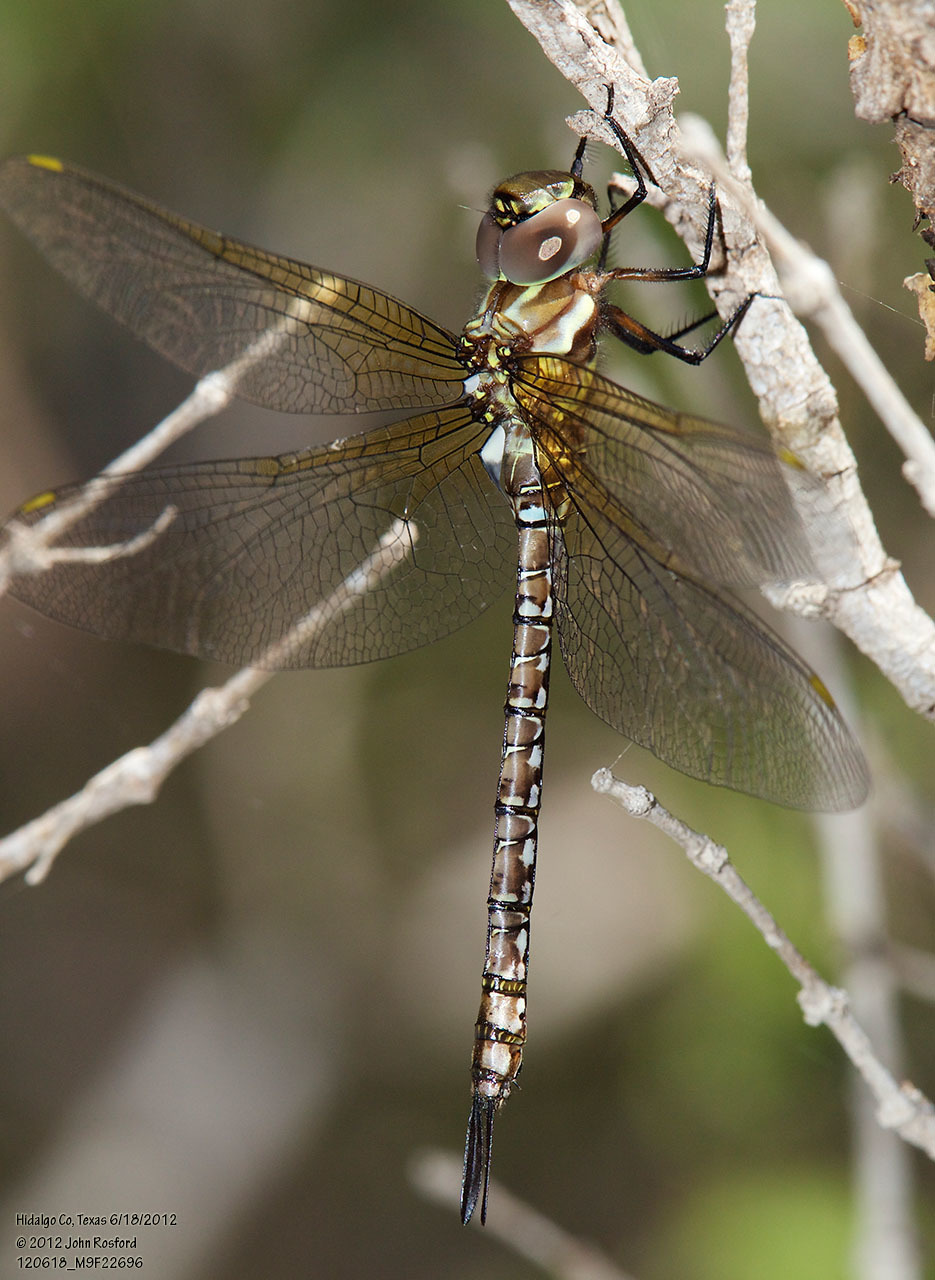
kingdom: Animalia
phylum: Arthropoda
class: Insecta
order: Odonata
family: Aeshnidae
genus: Rhionaeschna
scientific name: Rhionaeschna psilus
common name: Turquoise-tipped darner
